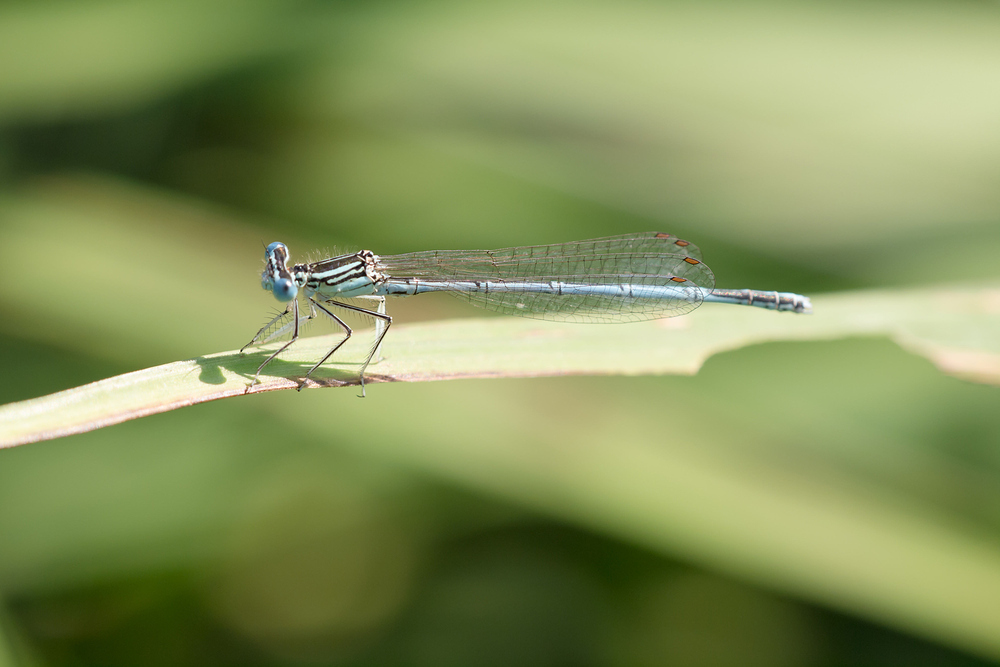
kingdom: Animalia
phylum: Arthropoda
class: Insecta
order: Odonata
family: Platycnemididae
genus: Platycnemis
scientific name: Platycnemis pennipes
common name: White-legged damselfly
